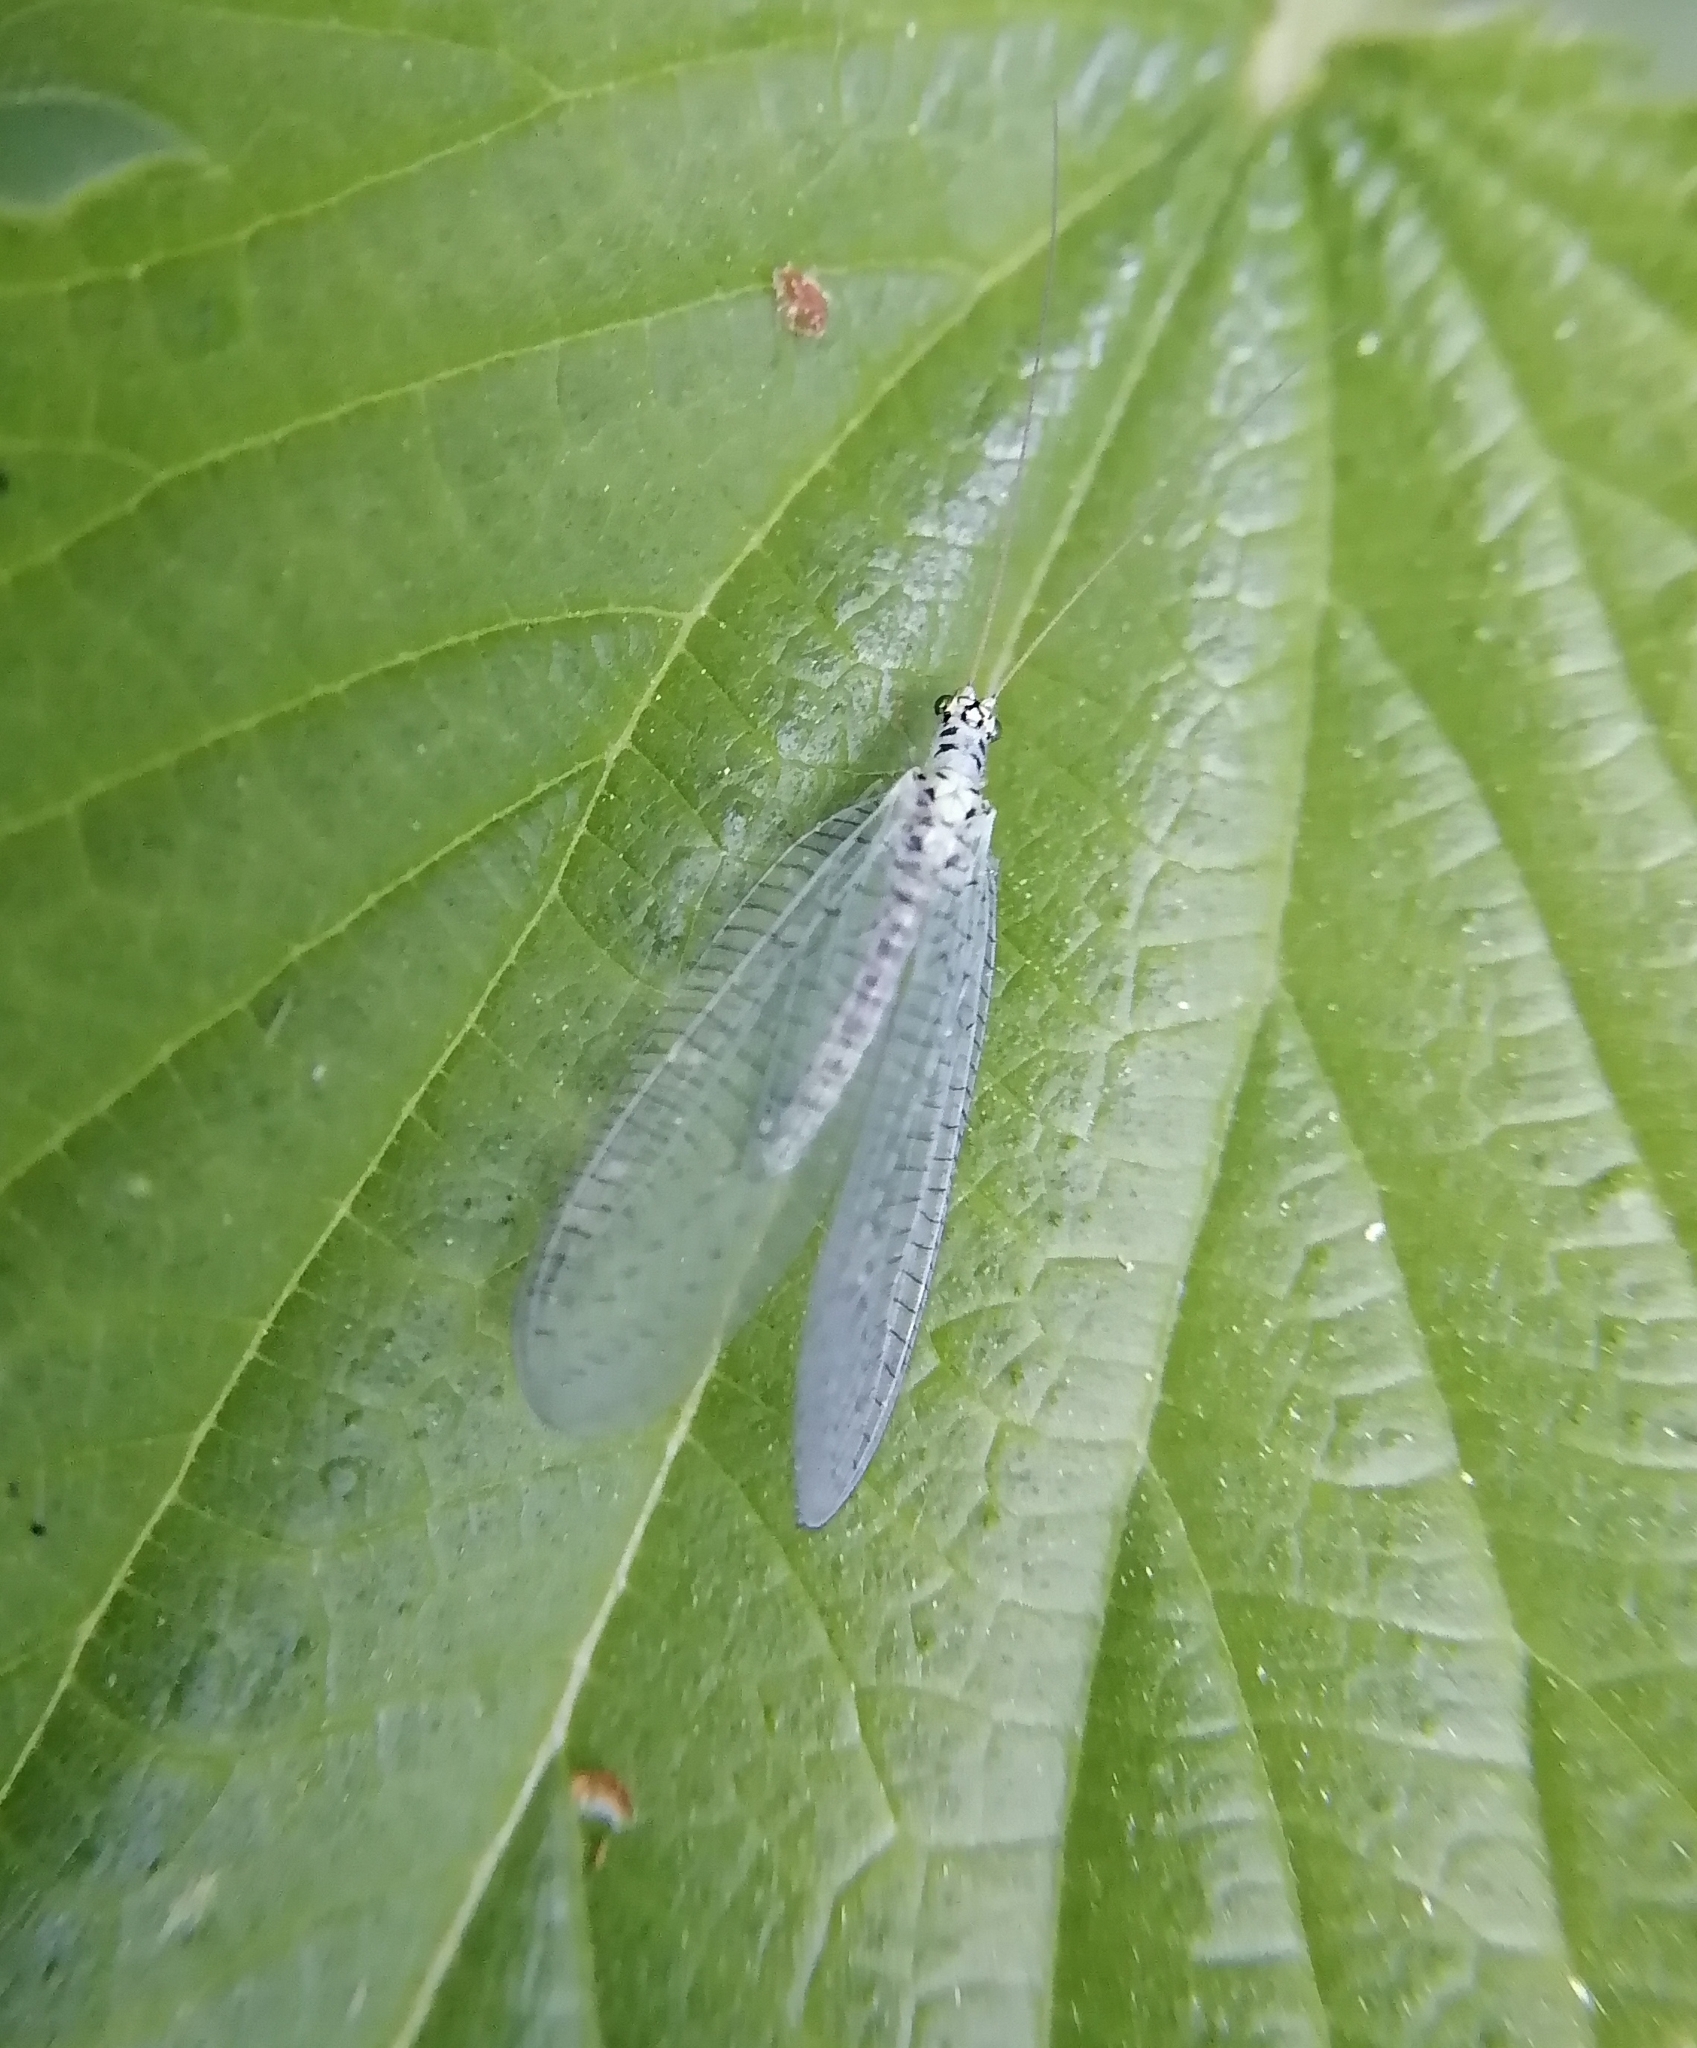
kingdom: Animalia
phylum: Arthropoda
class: Insecta
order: Neuroptera
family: Chrysopidae
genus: Chrysopa
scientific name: Chrysopa perla
